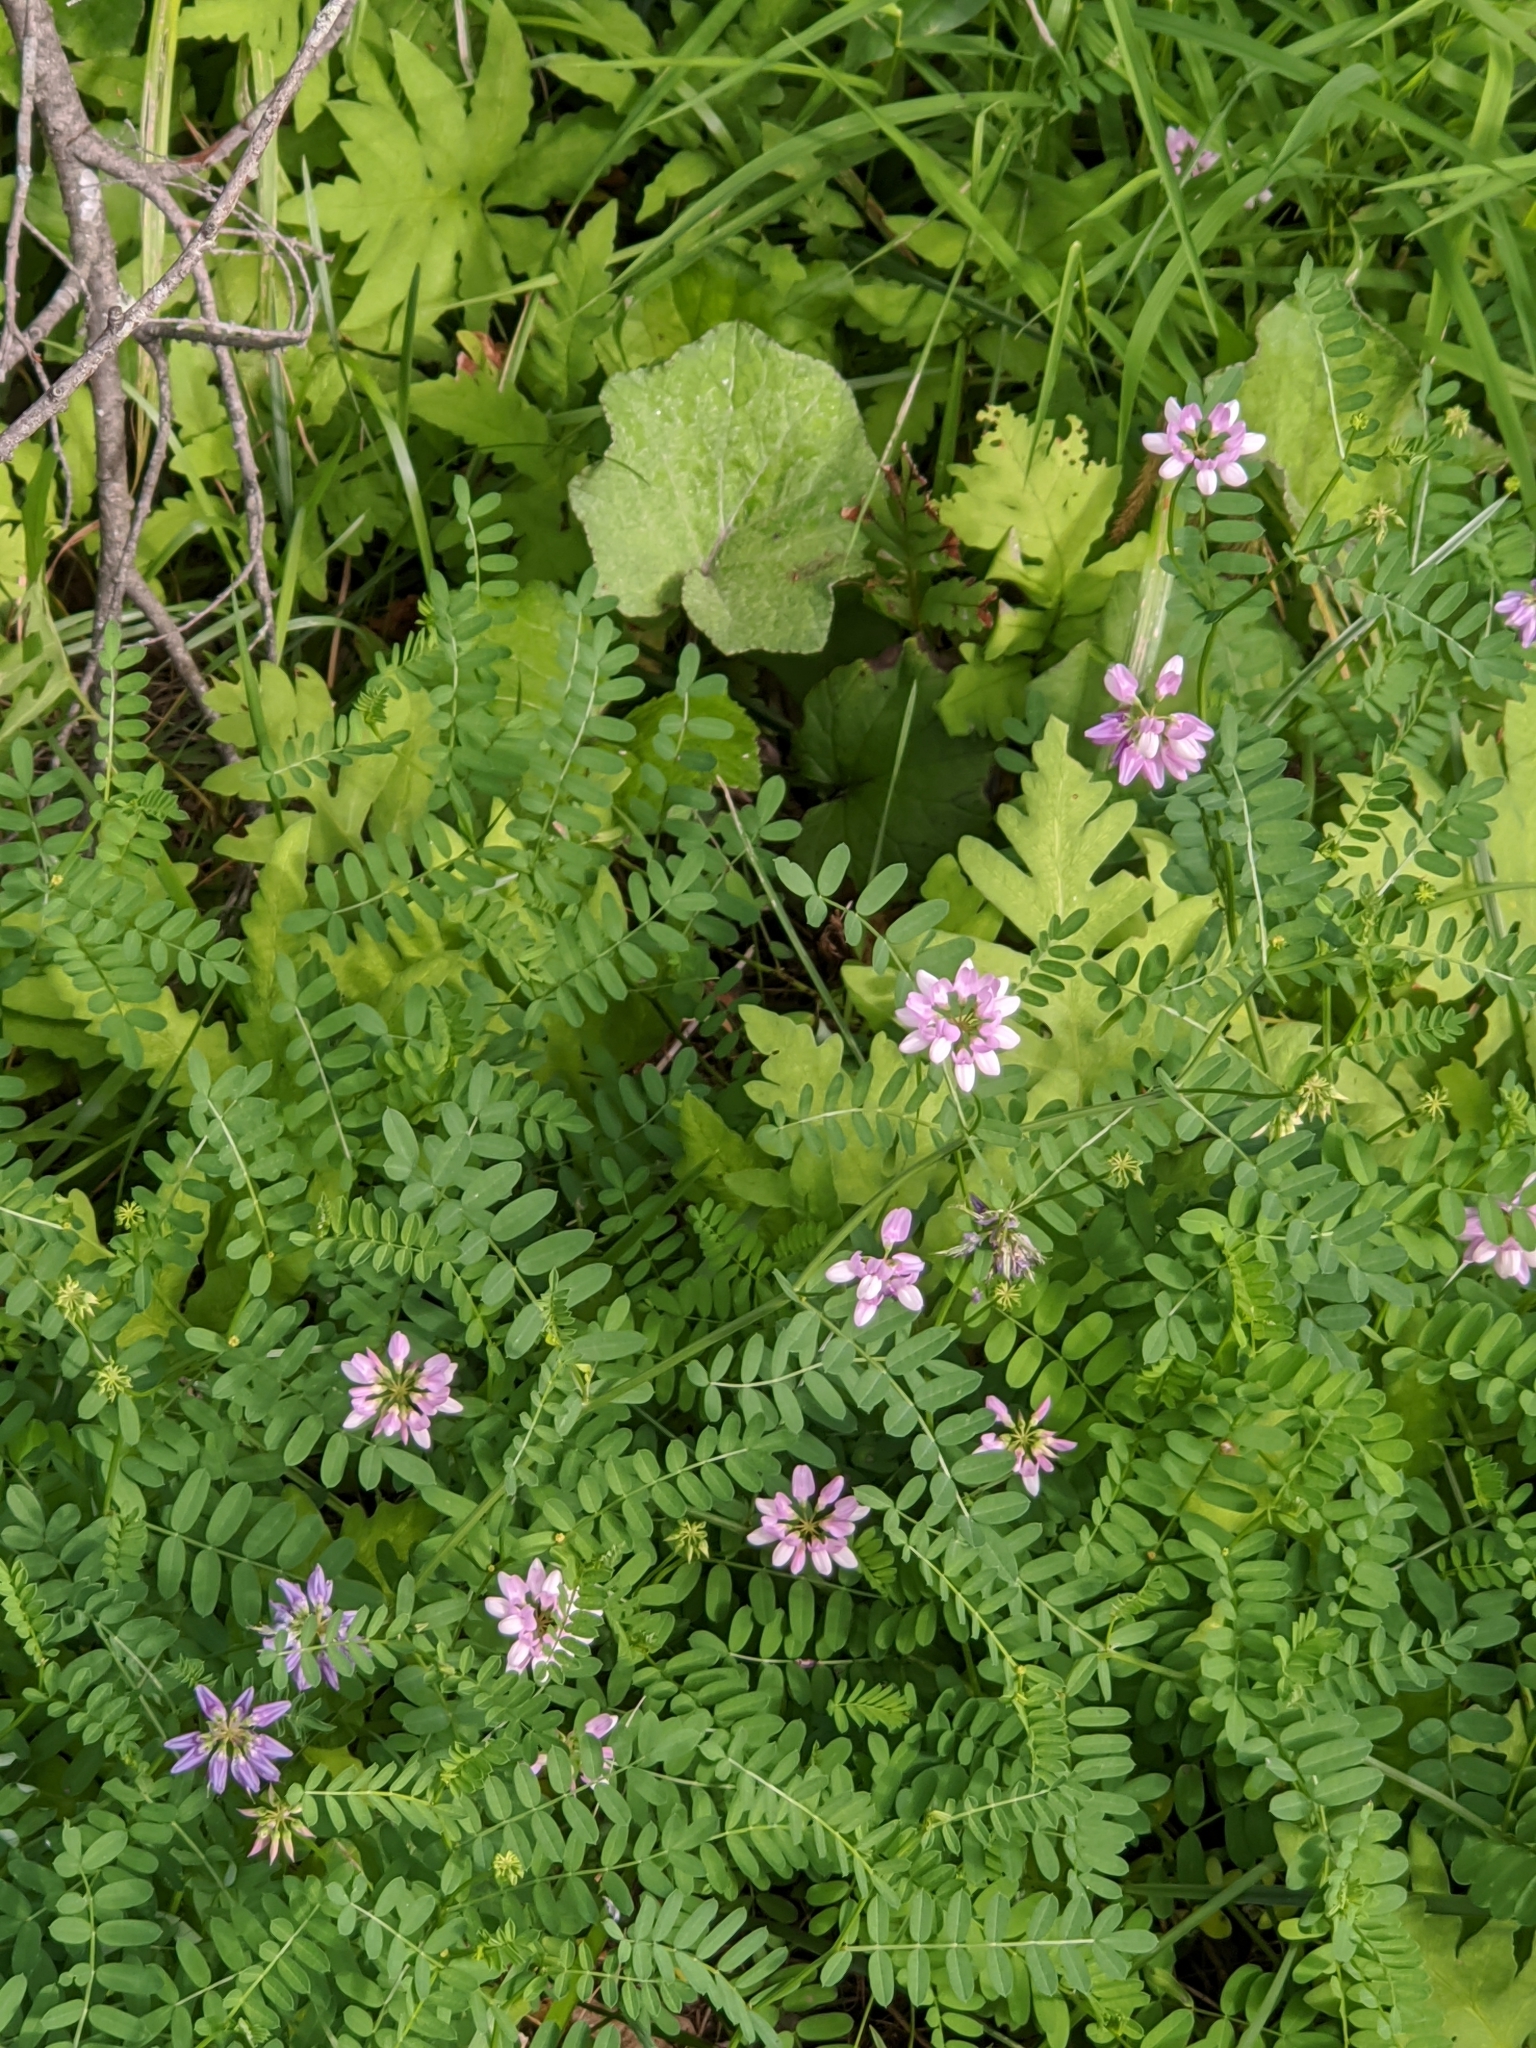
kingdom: Plantae
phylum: Tracheophyta
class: Magnoliopsida
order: Fabales
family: Fabaceae
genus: Coronilla
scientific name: Coronilla varia
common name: Crownvetch
